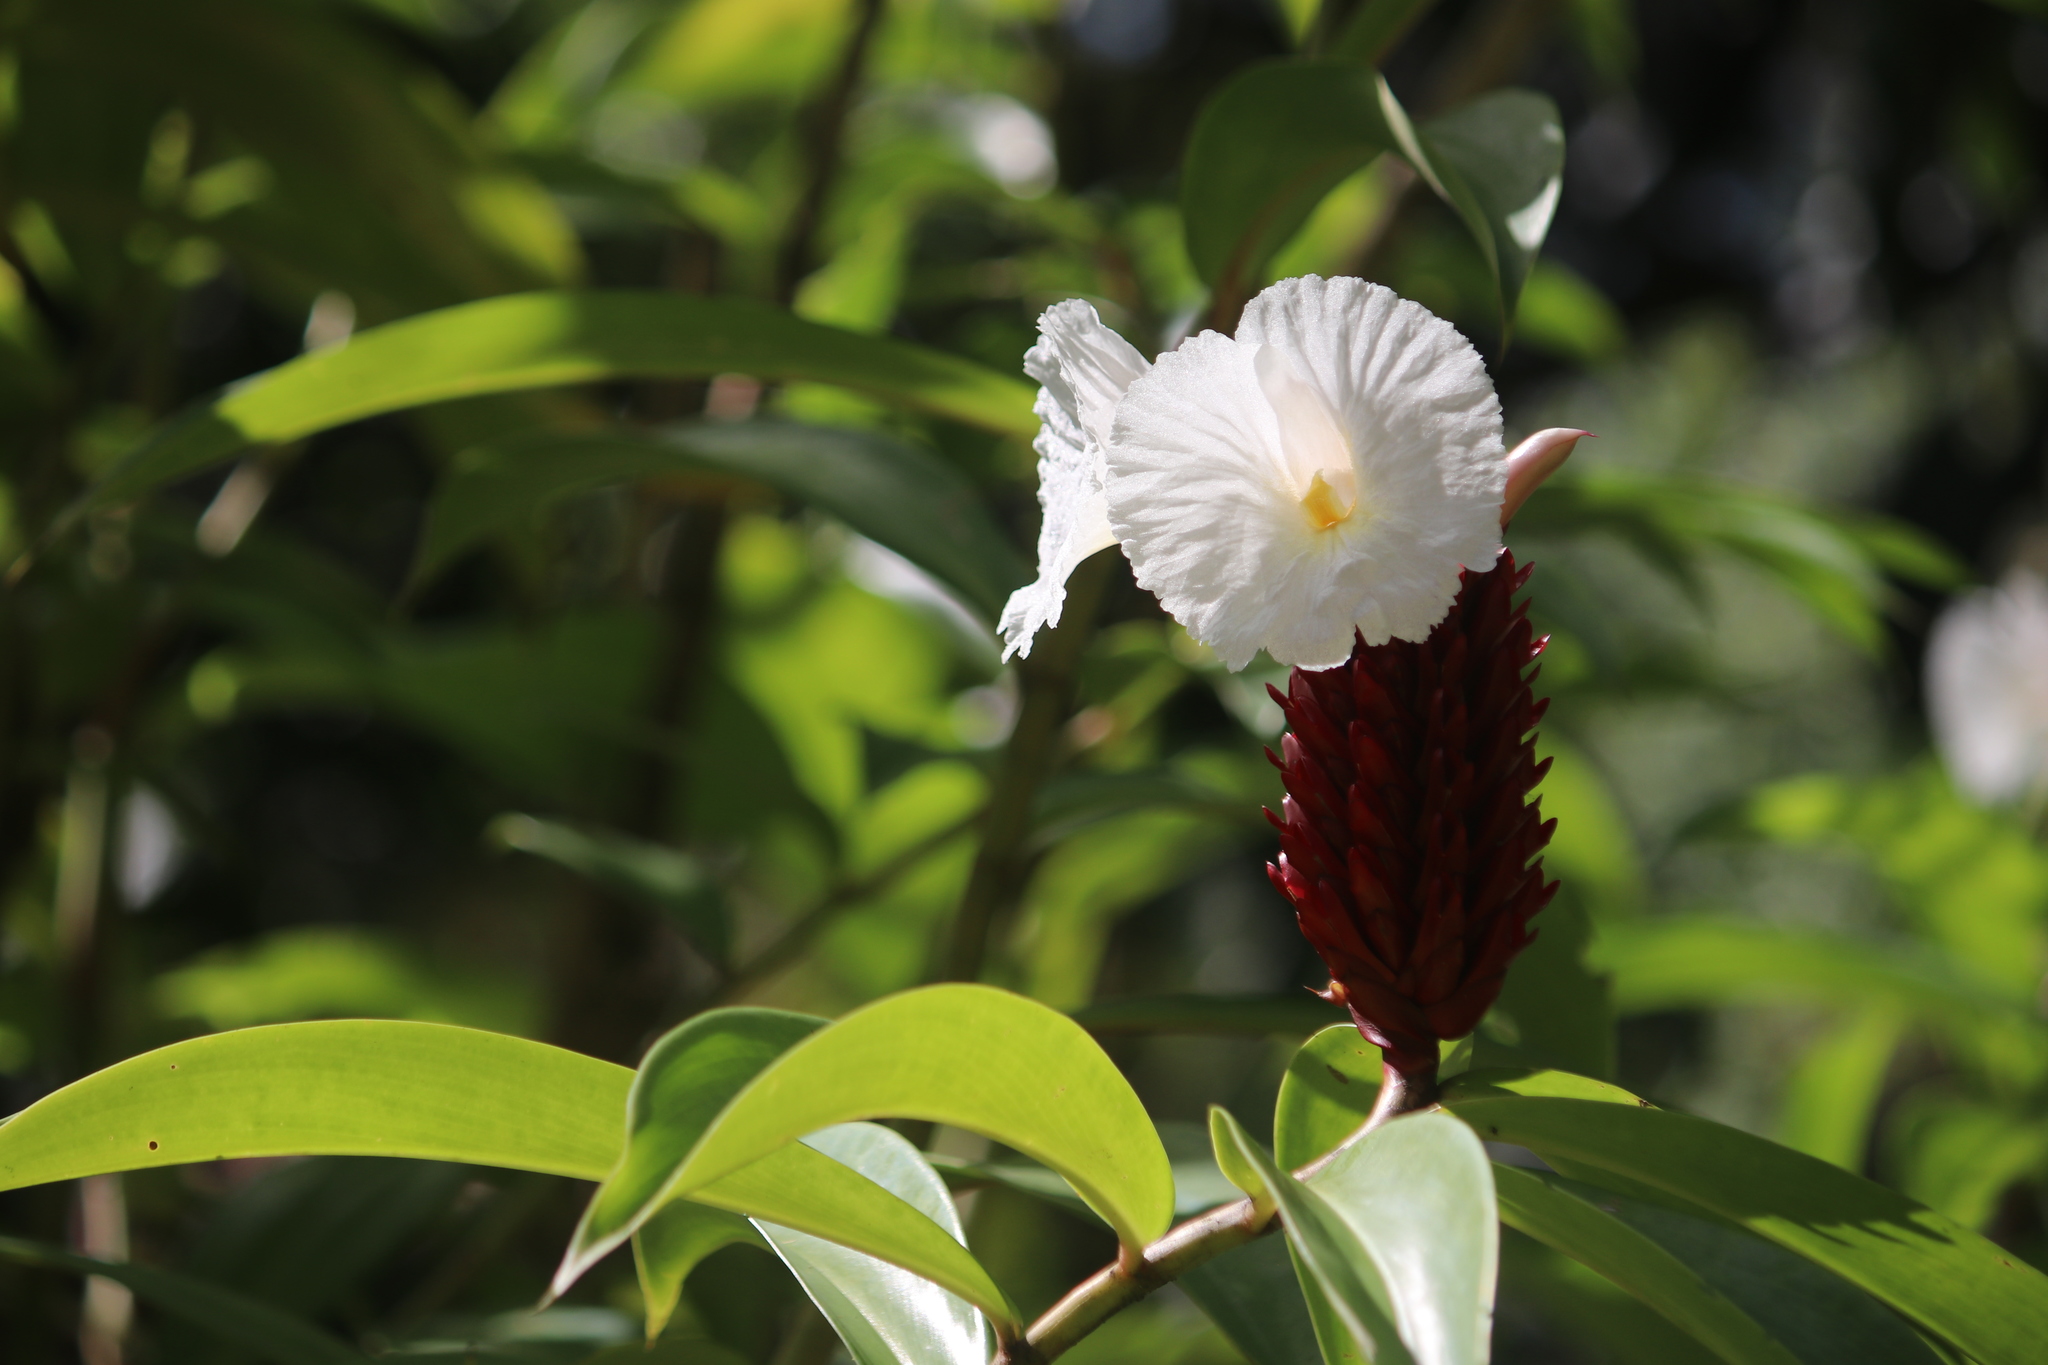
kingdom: Plantae
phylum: Tracheophyta
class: Liliopsida
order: Zingiberales
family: Costaceae
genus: Hellenia
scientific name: Hellenia speciosa
